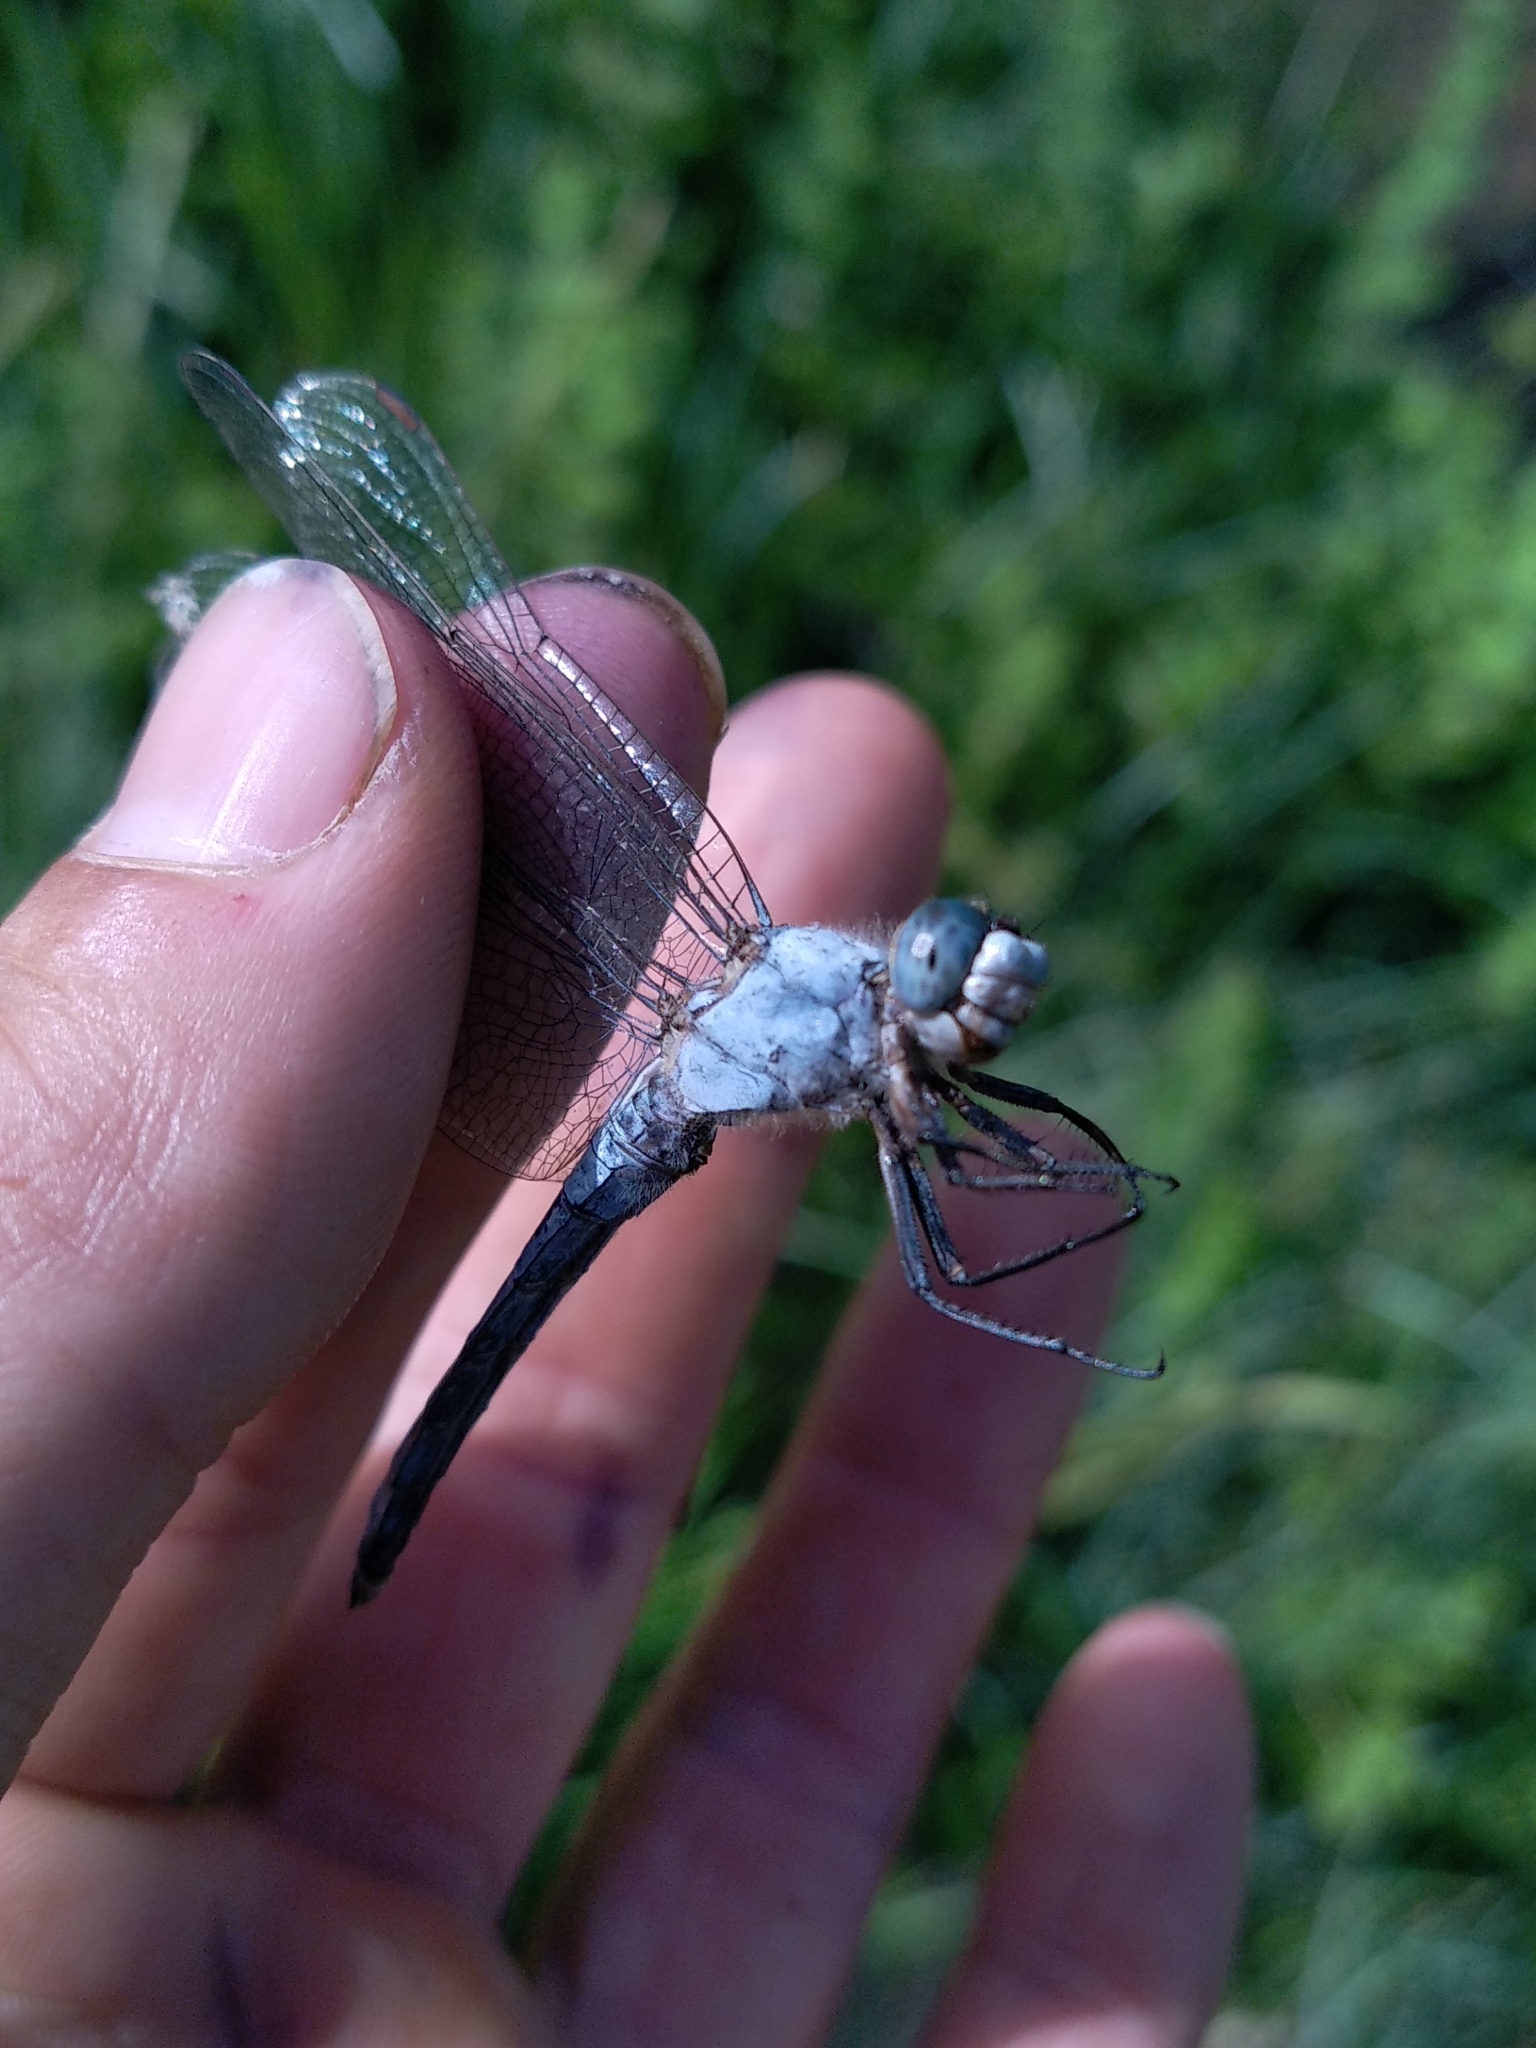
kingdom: Animalia
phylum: Arthropoda
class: Insecta
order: Odonata
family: Libellulidae
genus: Orthetrum
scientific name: Orthetrum brunneum
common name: Southern skimmer
